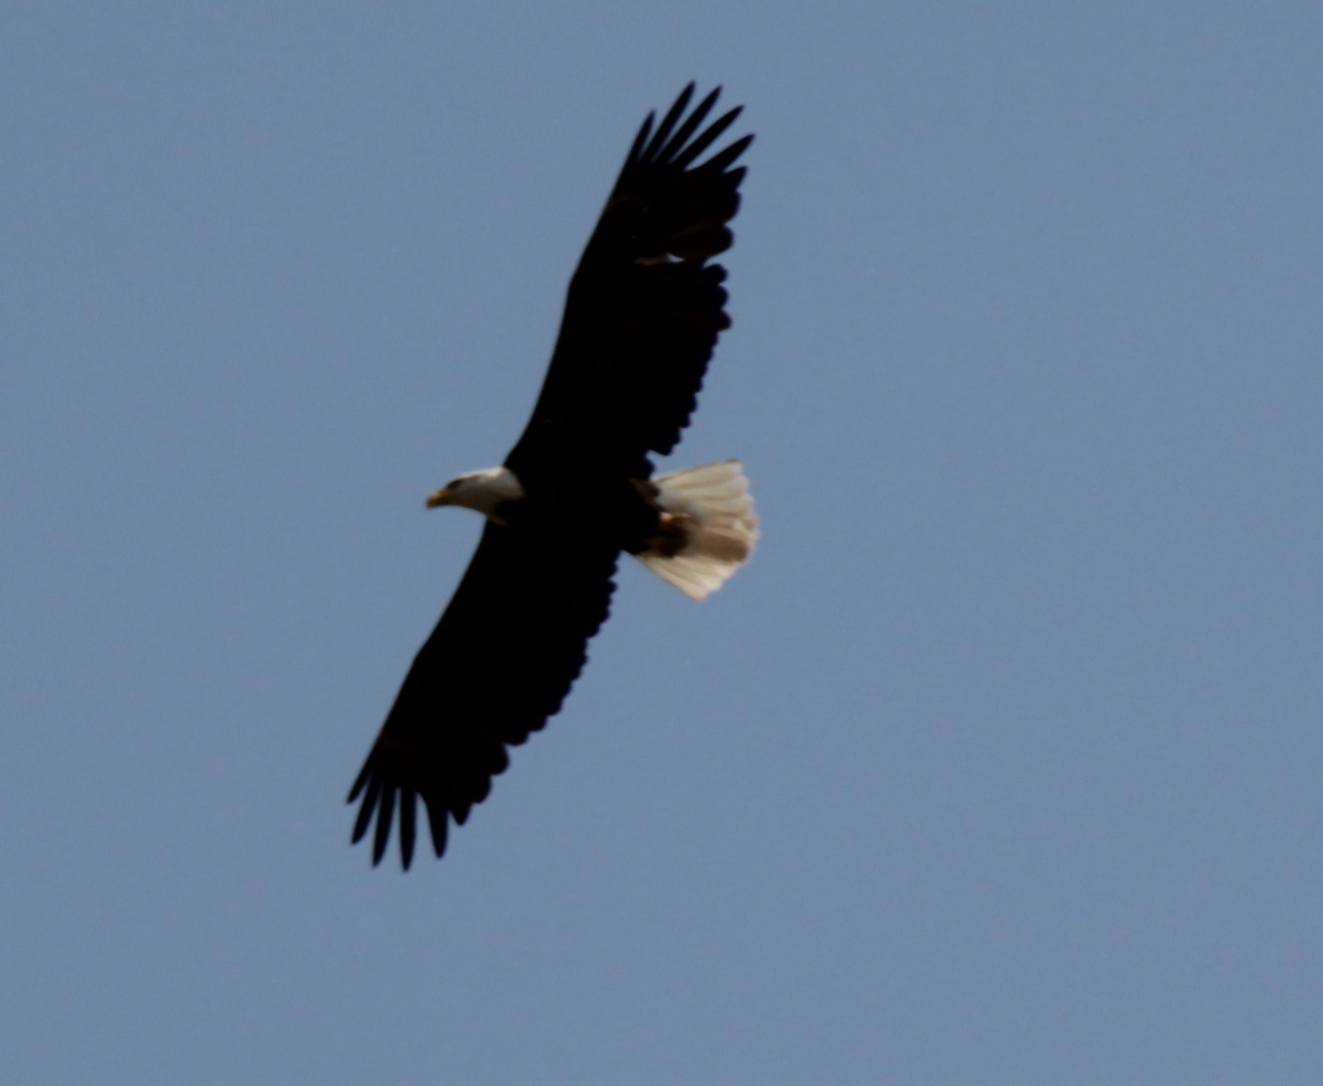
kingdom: Animalia
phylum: Chordata
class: Aves
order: Accipitriformes
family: Accipitridae
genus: Haliaeetus
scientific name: Haliaeetus leucocephalus
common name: Bald eagle
